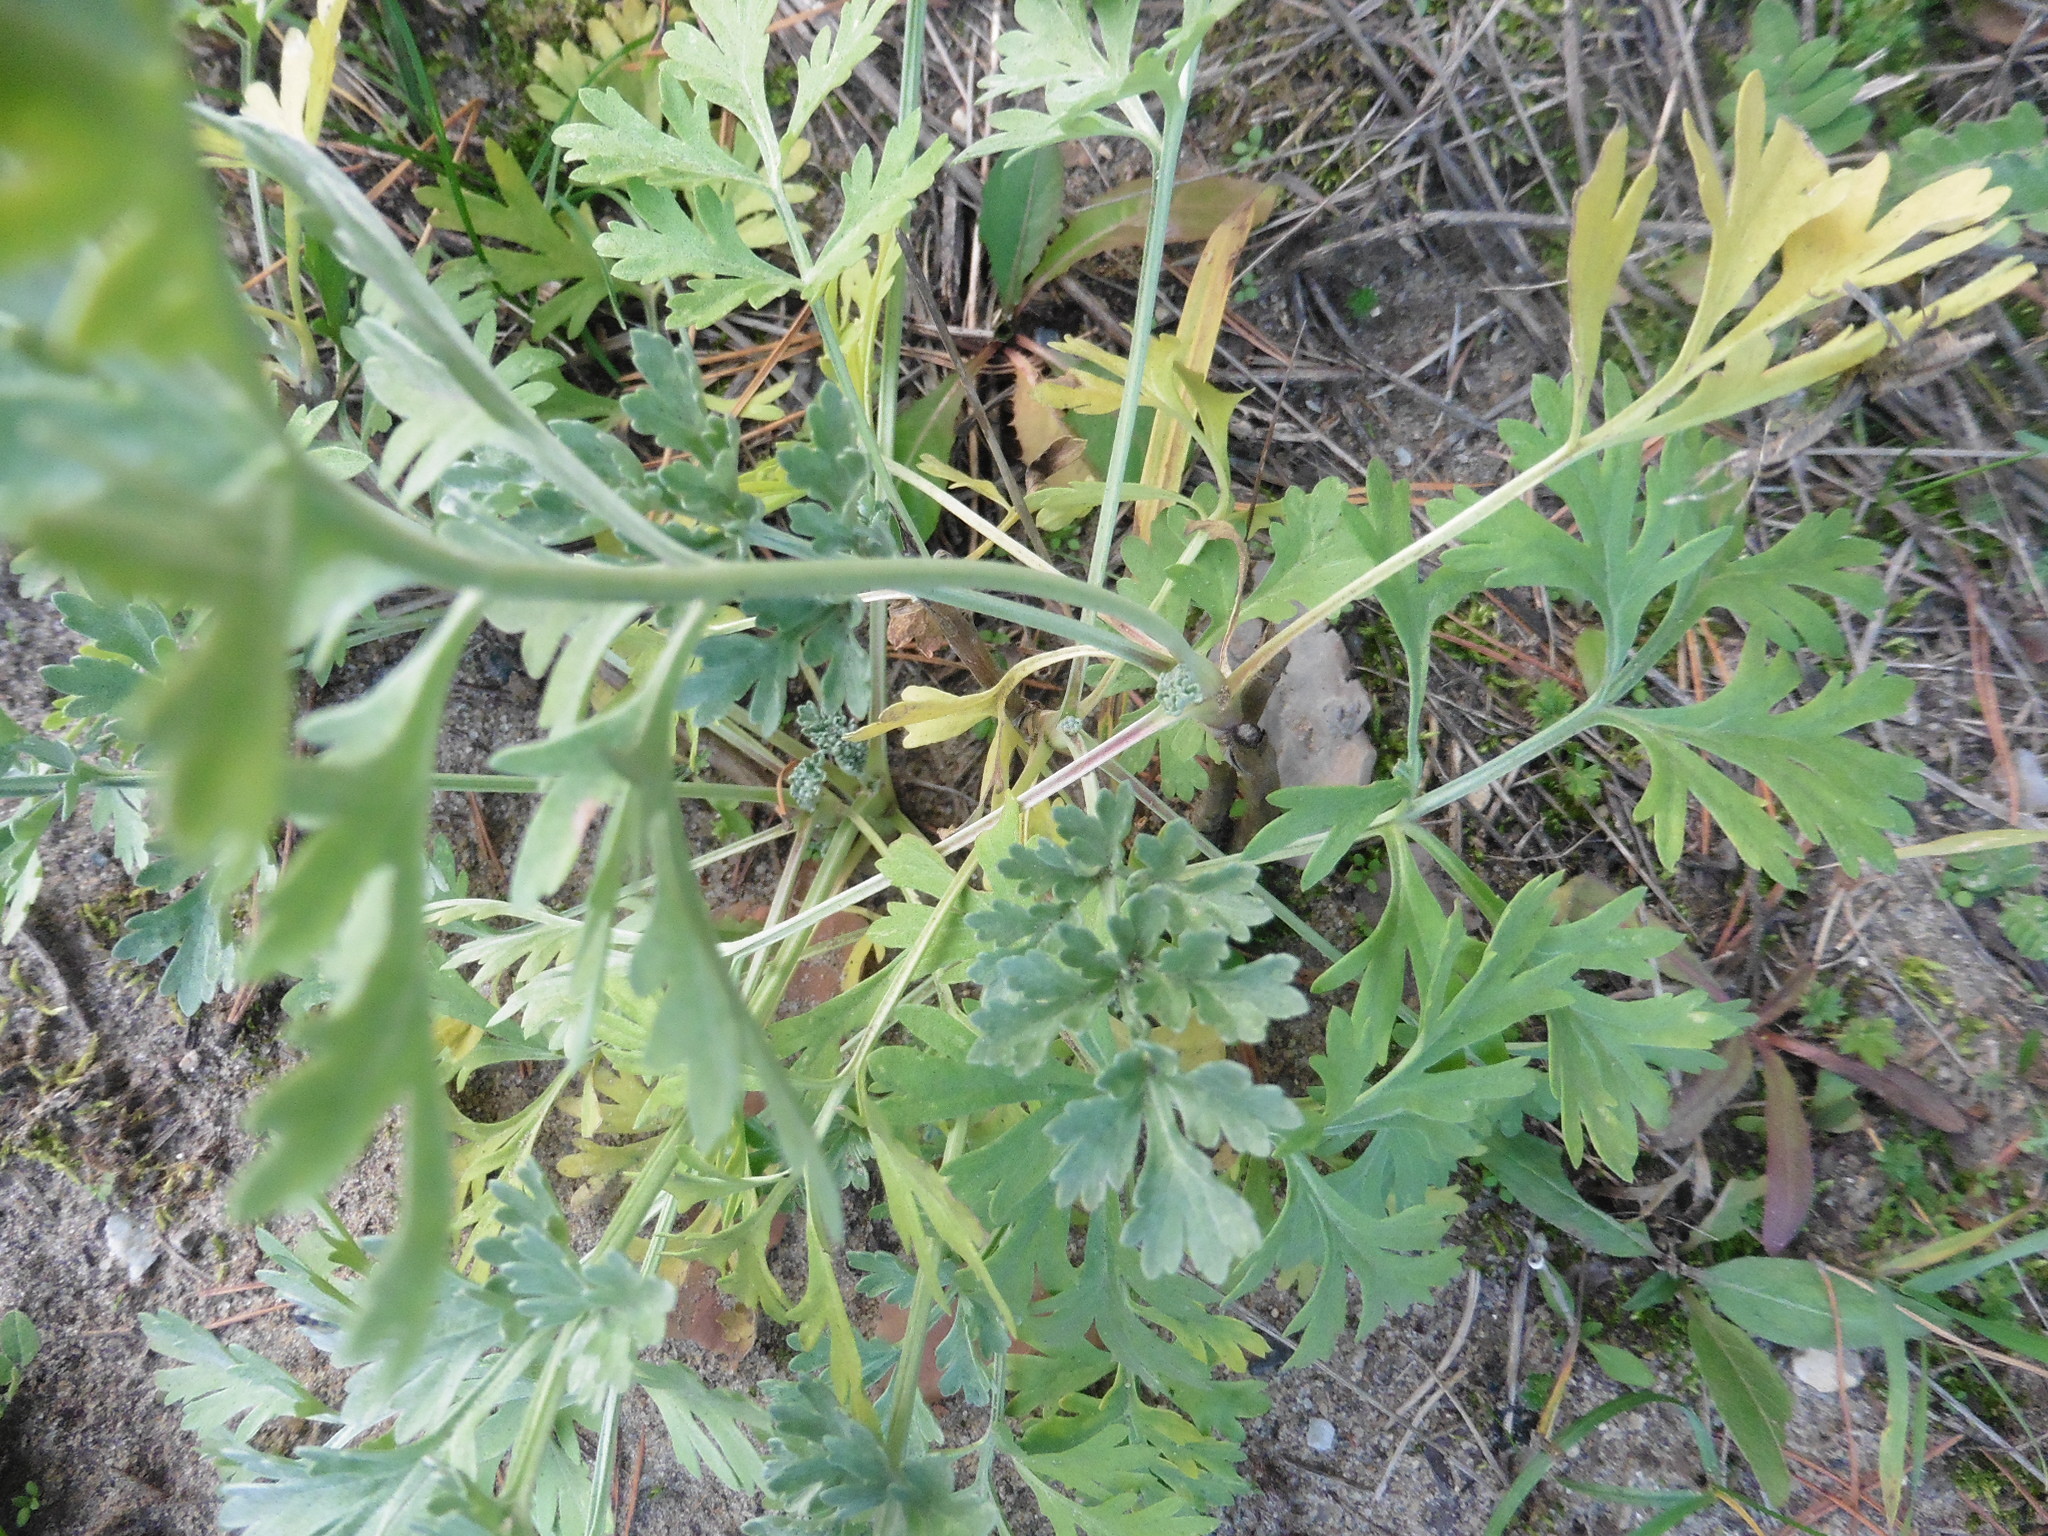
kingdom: Plantae
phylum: Tracheophyta
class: Magnoliopsida
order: Asterales
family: Asteraceae
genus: Artemisia
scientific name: Artemisia absinthium
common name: Wormwood
